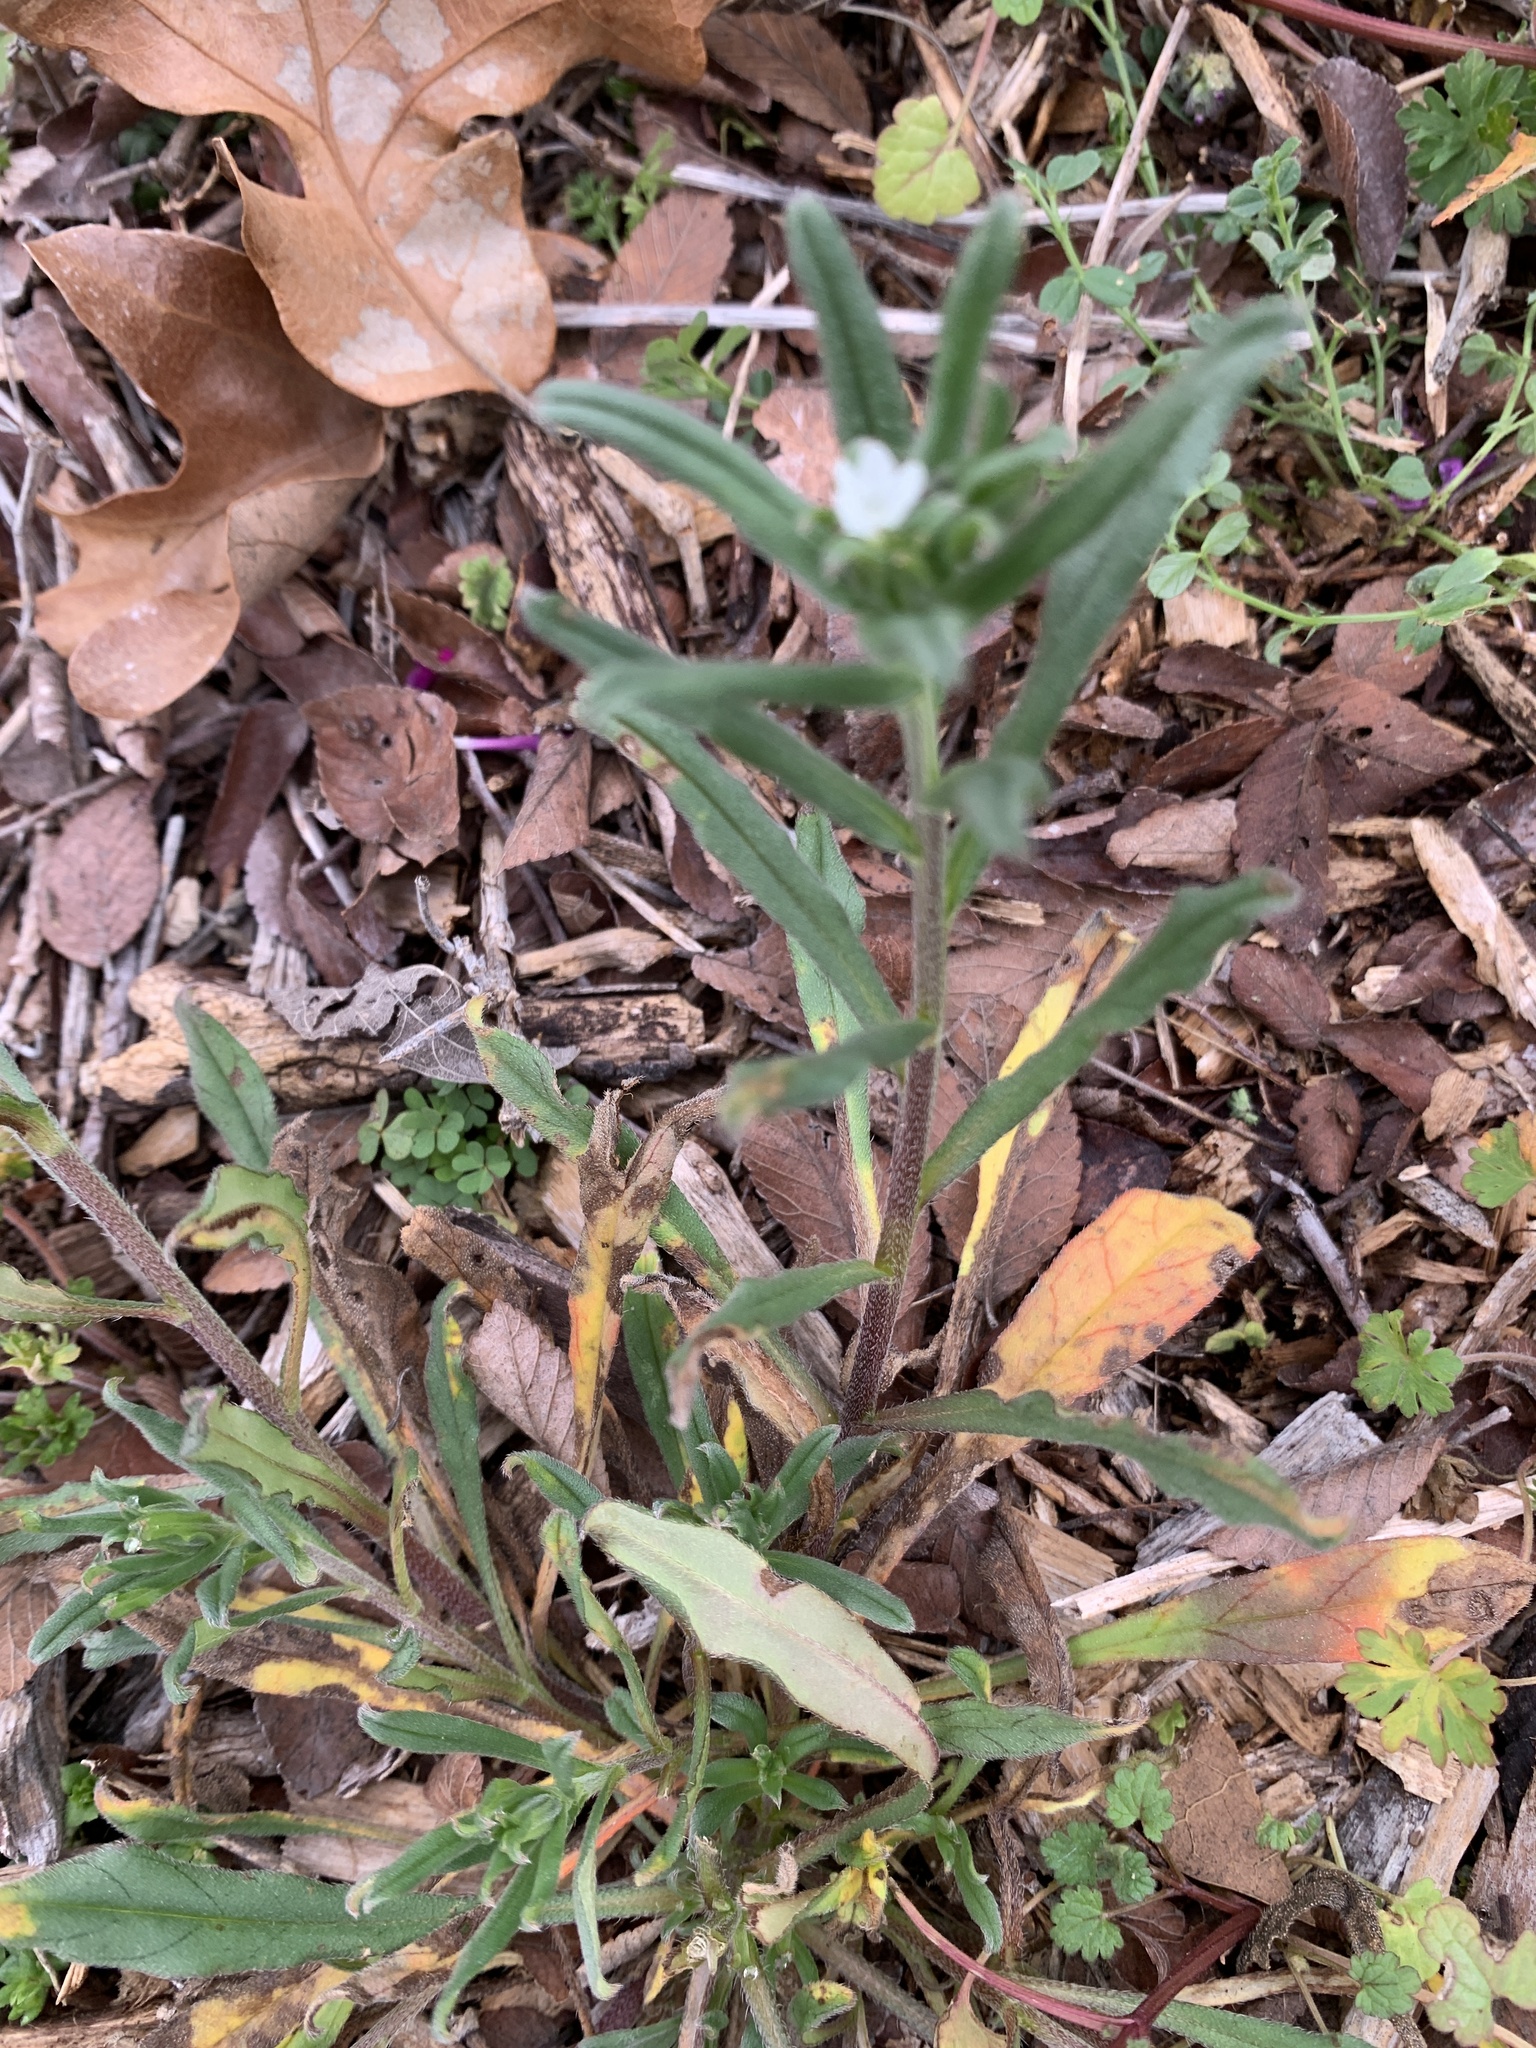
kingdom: Plantae
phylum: Tracheophyta
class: Magnoliopsida
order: Boraginales
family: Boraginaceae
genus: Buglossoides
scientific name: Buglossoides arvensis
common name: Corn gromwell
